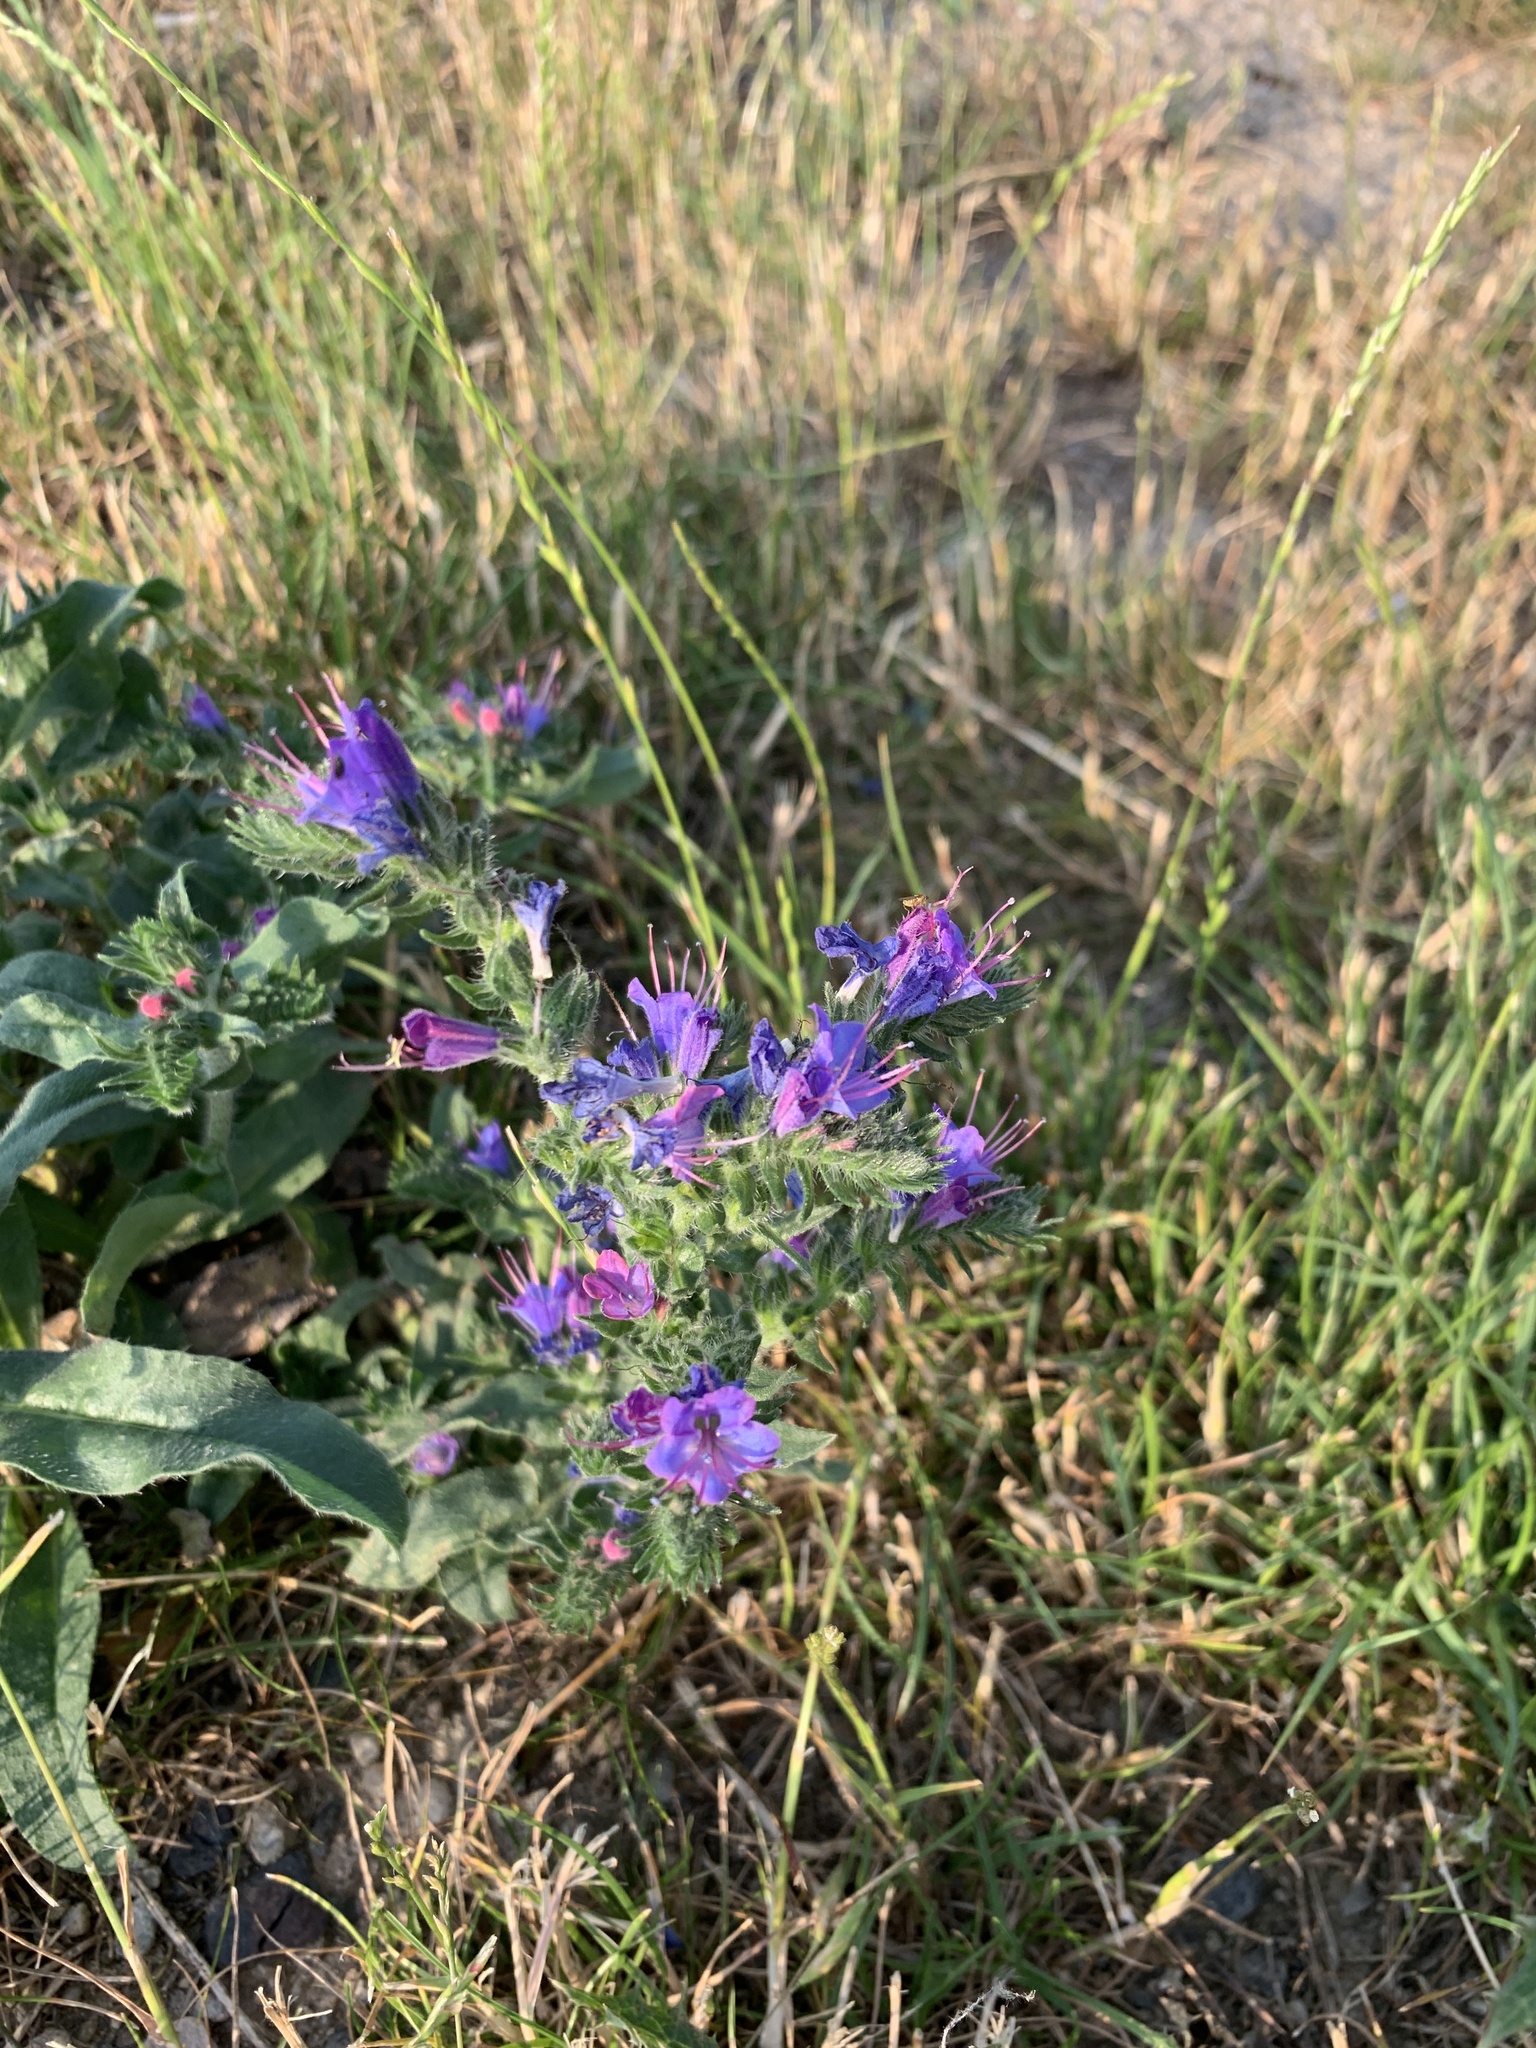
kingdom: Plantae
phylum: Tracheophyta
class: Magnoliopsida
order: Boraginales
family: Boraginaceae
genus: Echium
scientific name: Echium vulgare
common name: Common viper's bugloss
